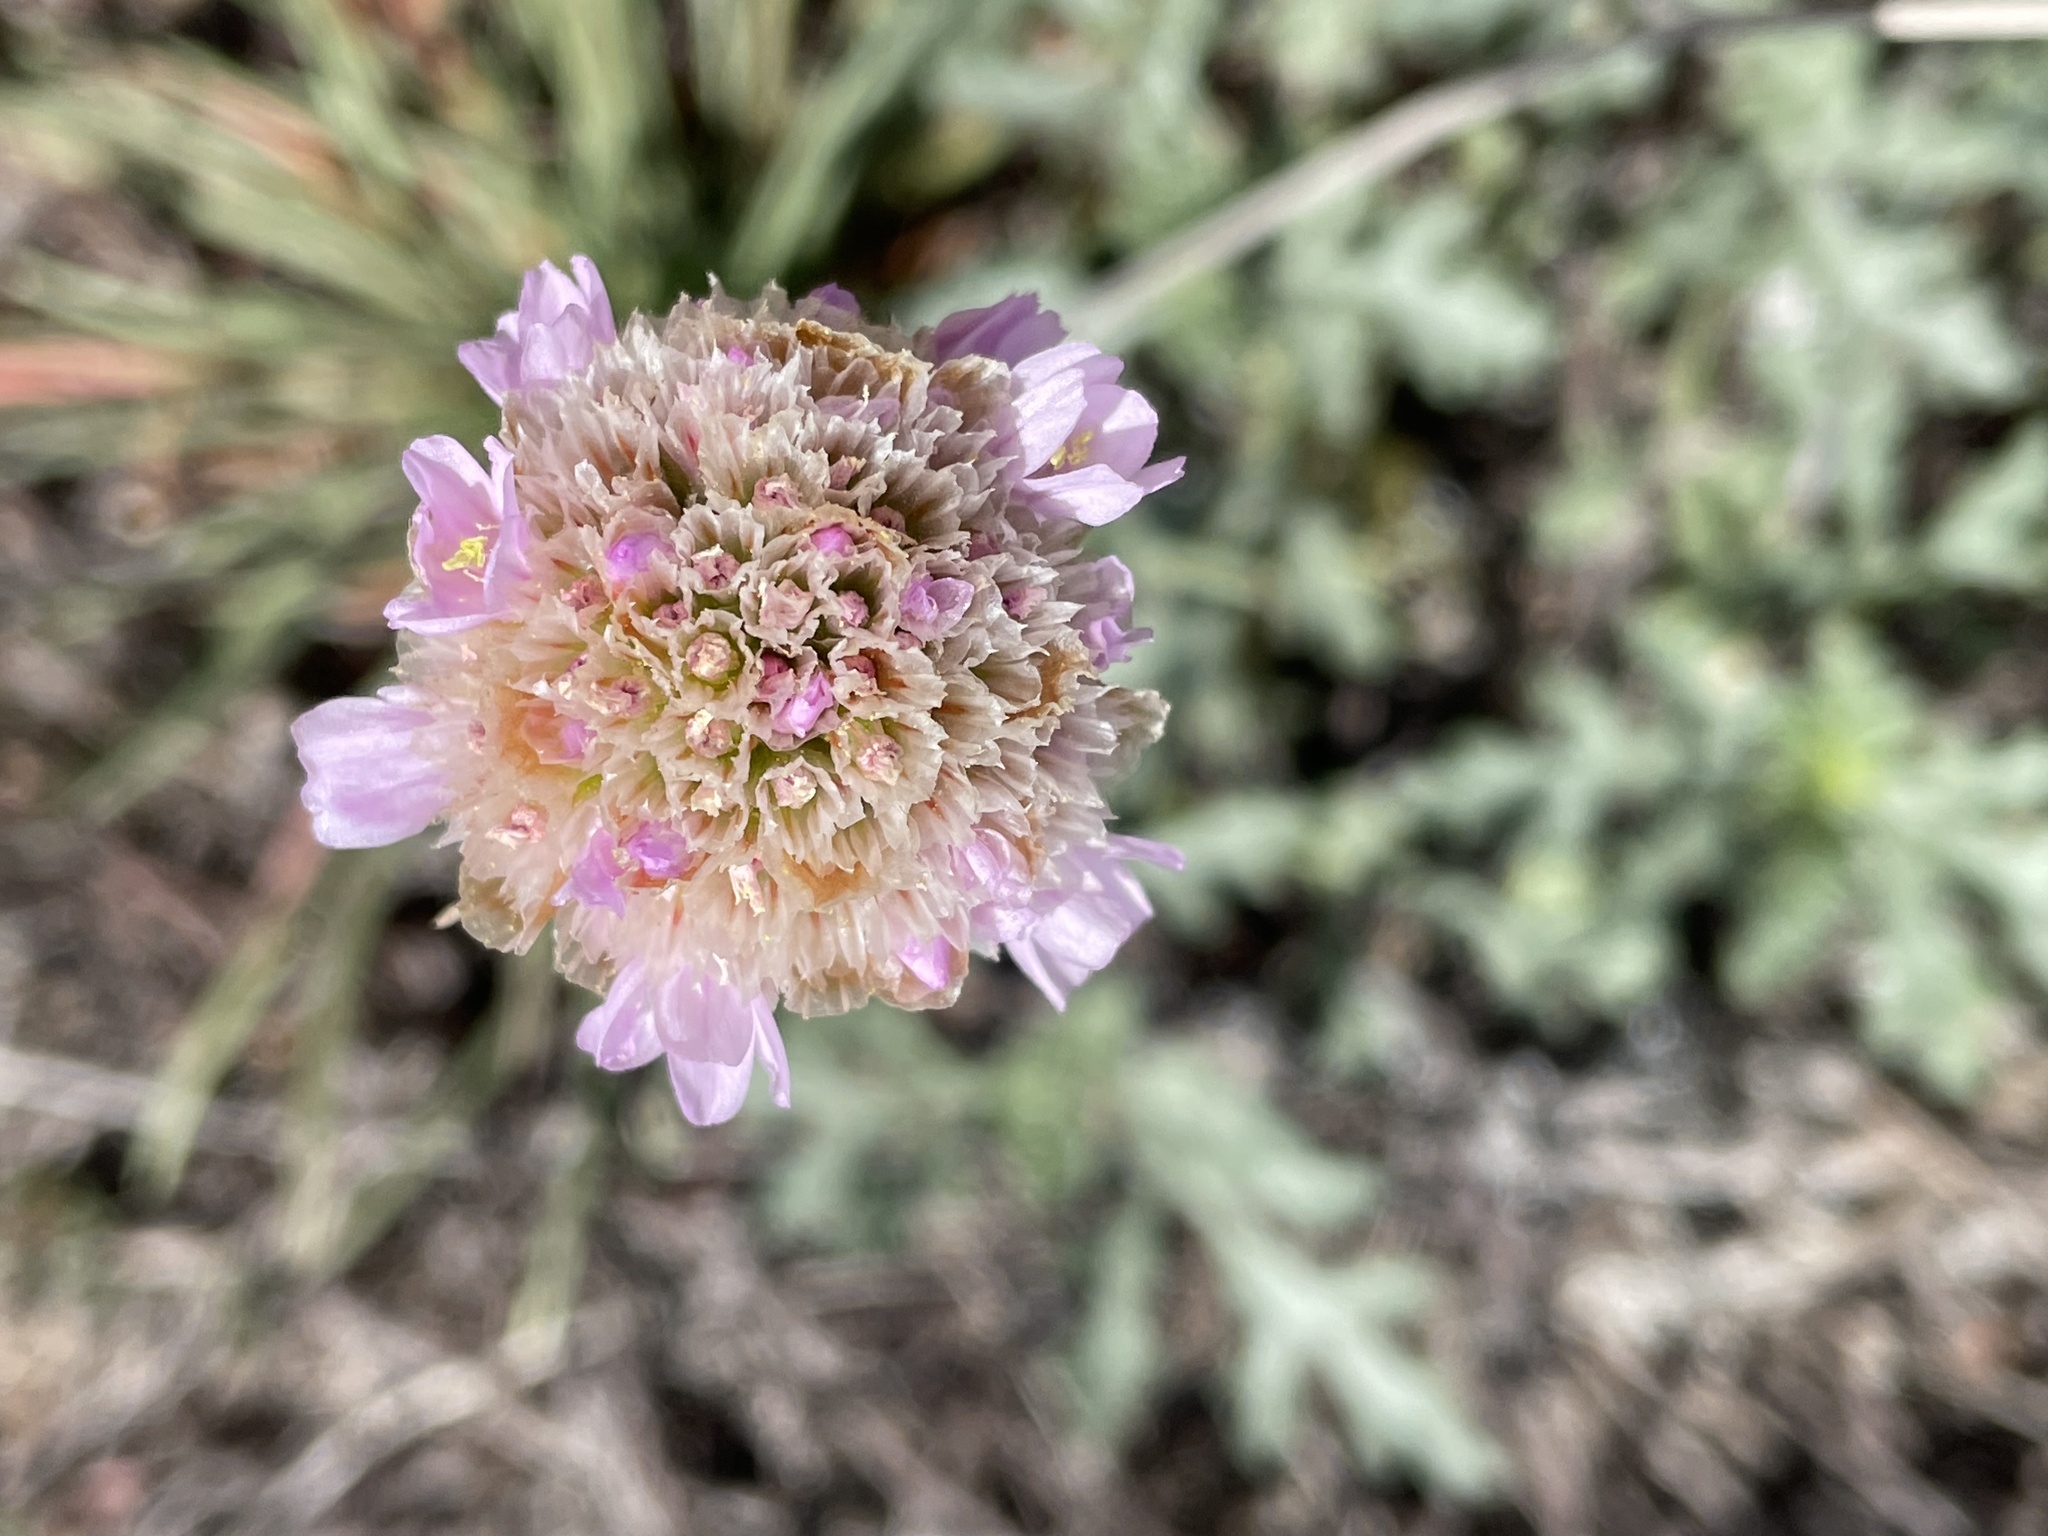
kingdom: Plantae
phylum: Tracheophyta
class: Magnoliopsida
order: Caryophyllales
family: Plumbaginaceae
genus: Armeria
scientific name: Armeria maritima
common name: Thrift
